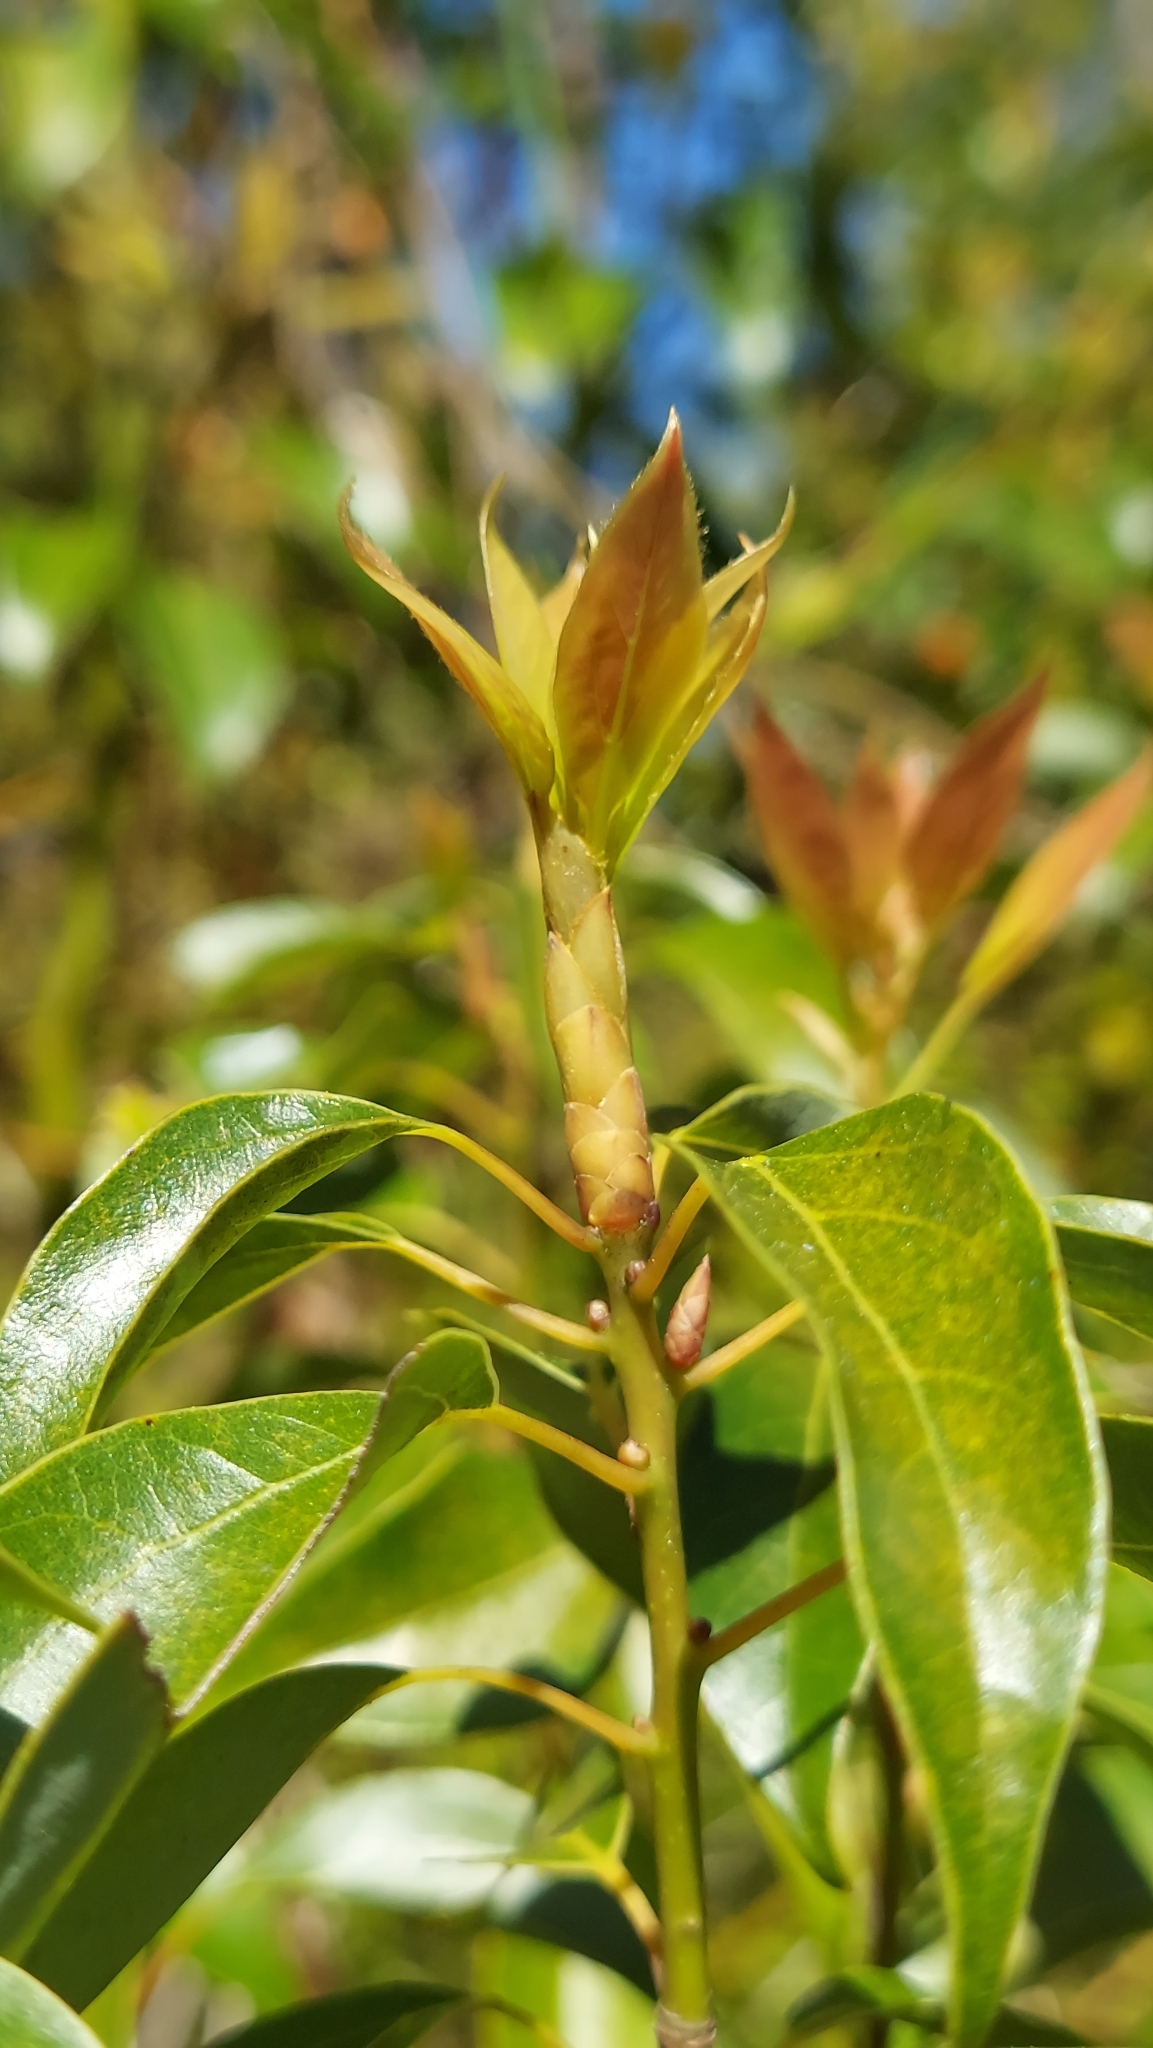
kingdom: Plantae
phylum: Tracheophyta
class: Magnoliopsida
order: Laurales
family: Lauraceae
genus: Cinnamomum
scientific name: Cinnamomum camphora
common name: Camphortree
